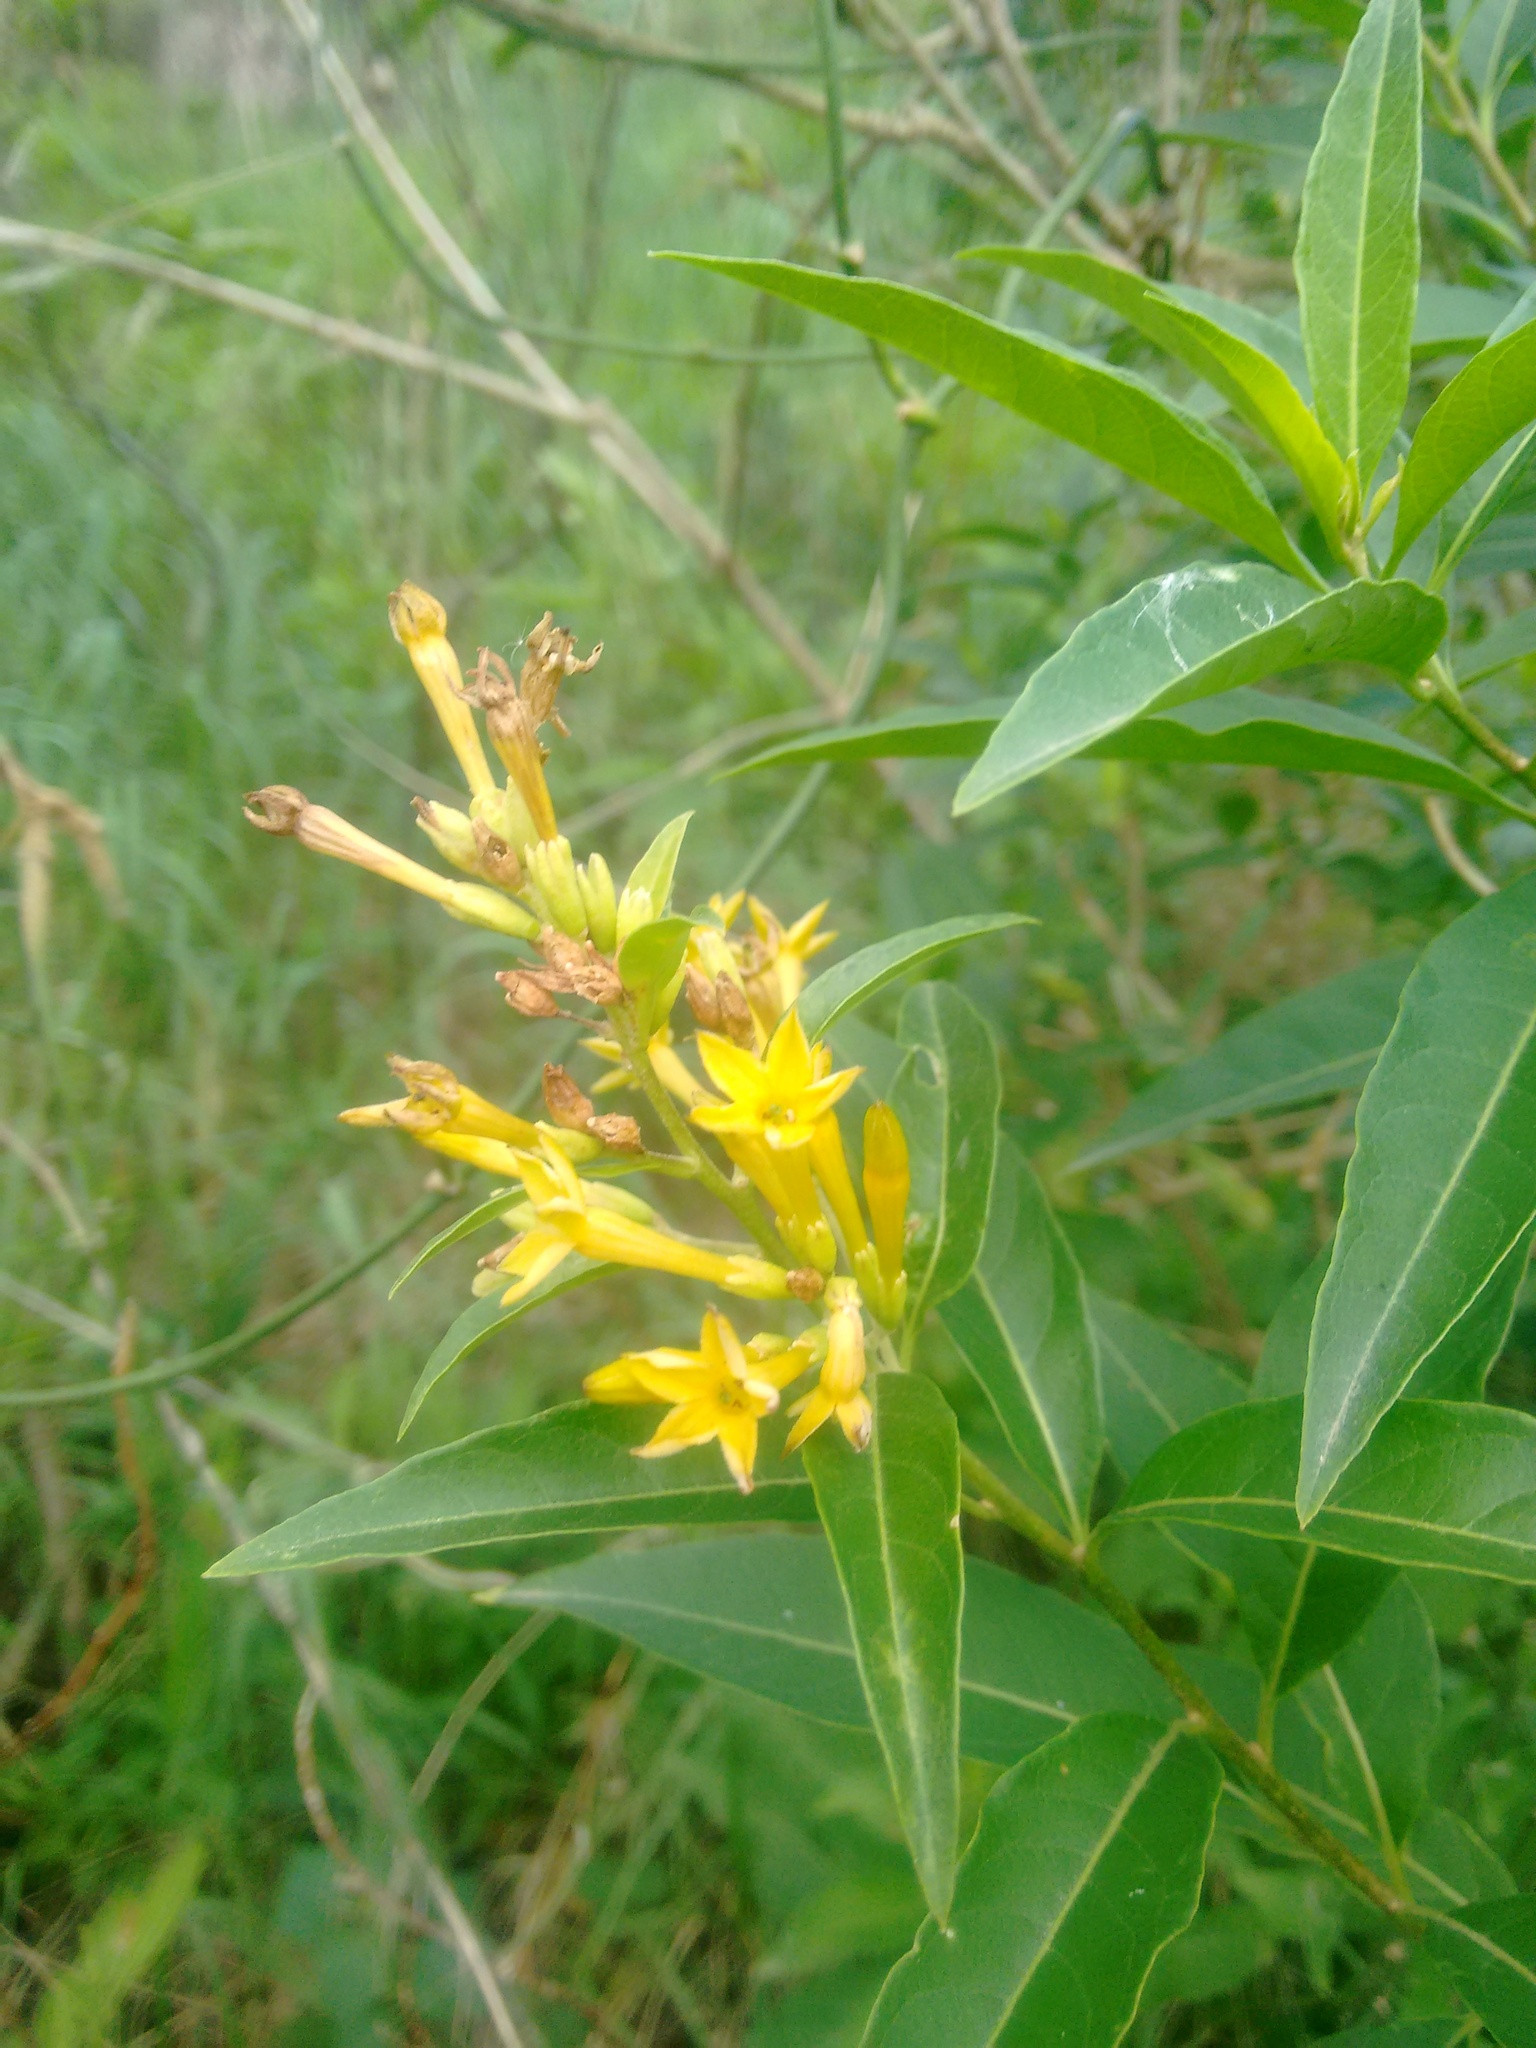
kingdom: Plantae
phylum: Tracheophyta
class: Magnoliopsida
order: Solanales
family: Solanaceae
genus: Cestrum
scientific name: Cestrum parqui
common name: Chilean cestrum
